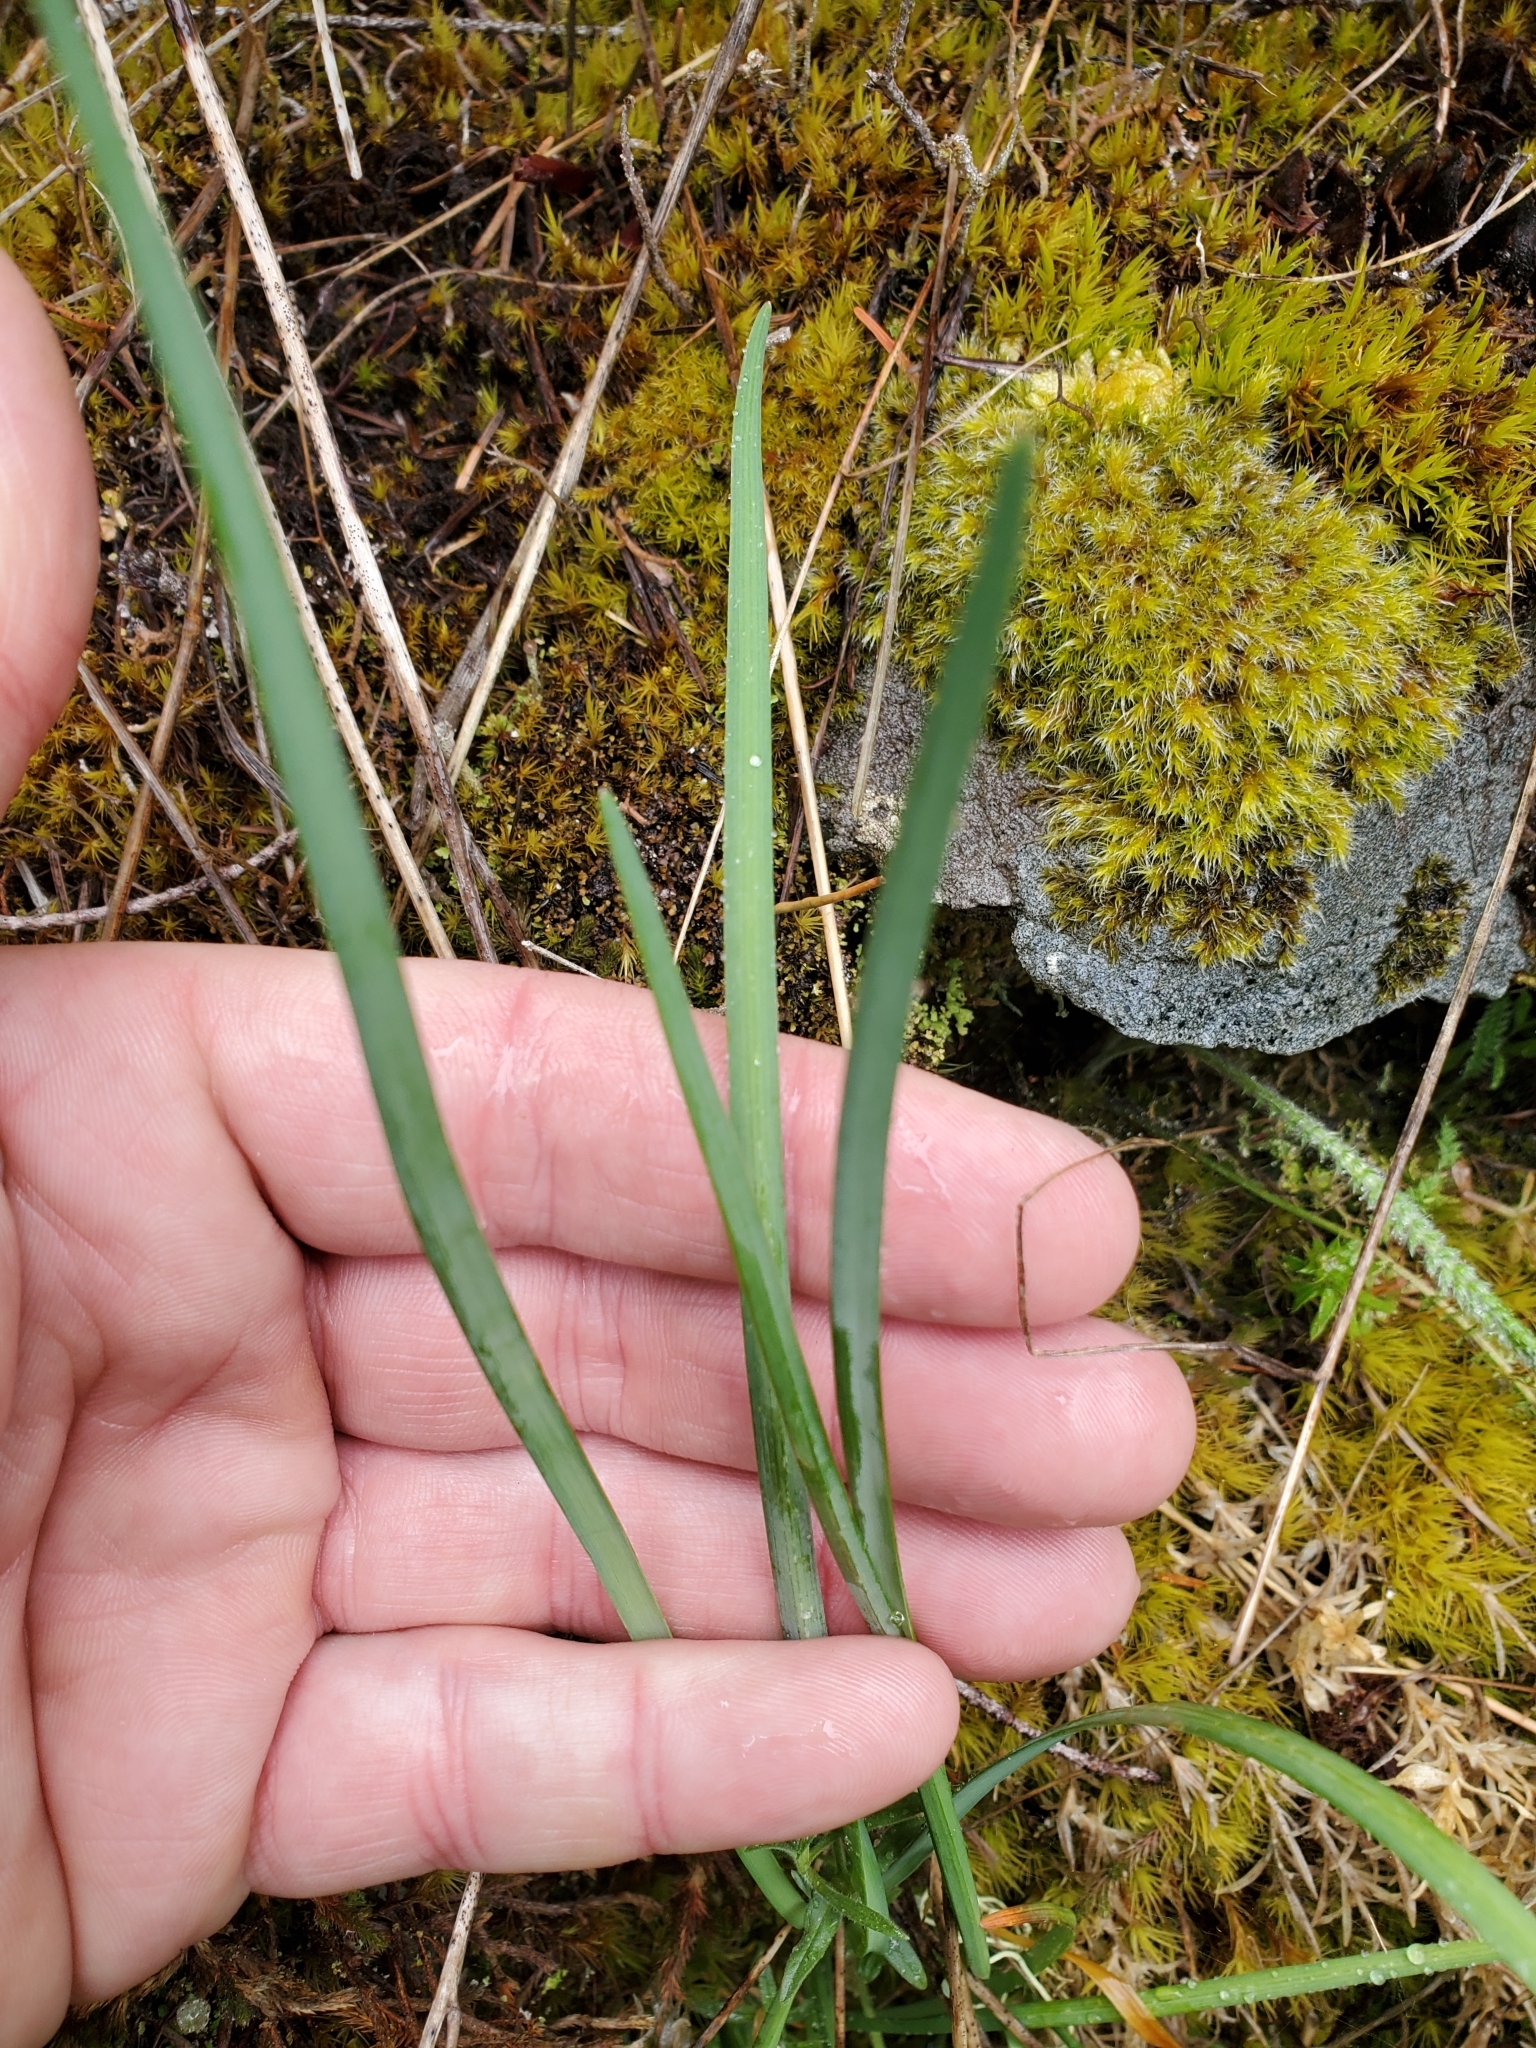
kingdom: Plantae
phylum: Tracheophyta
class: Liliopsida
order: Asparagales
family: Amaryllidaceae
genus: Allium
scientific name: Allium cernuum
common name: Nodding onion
